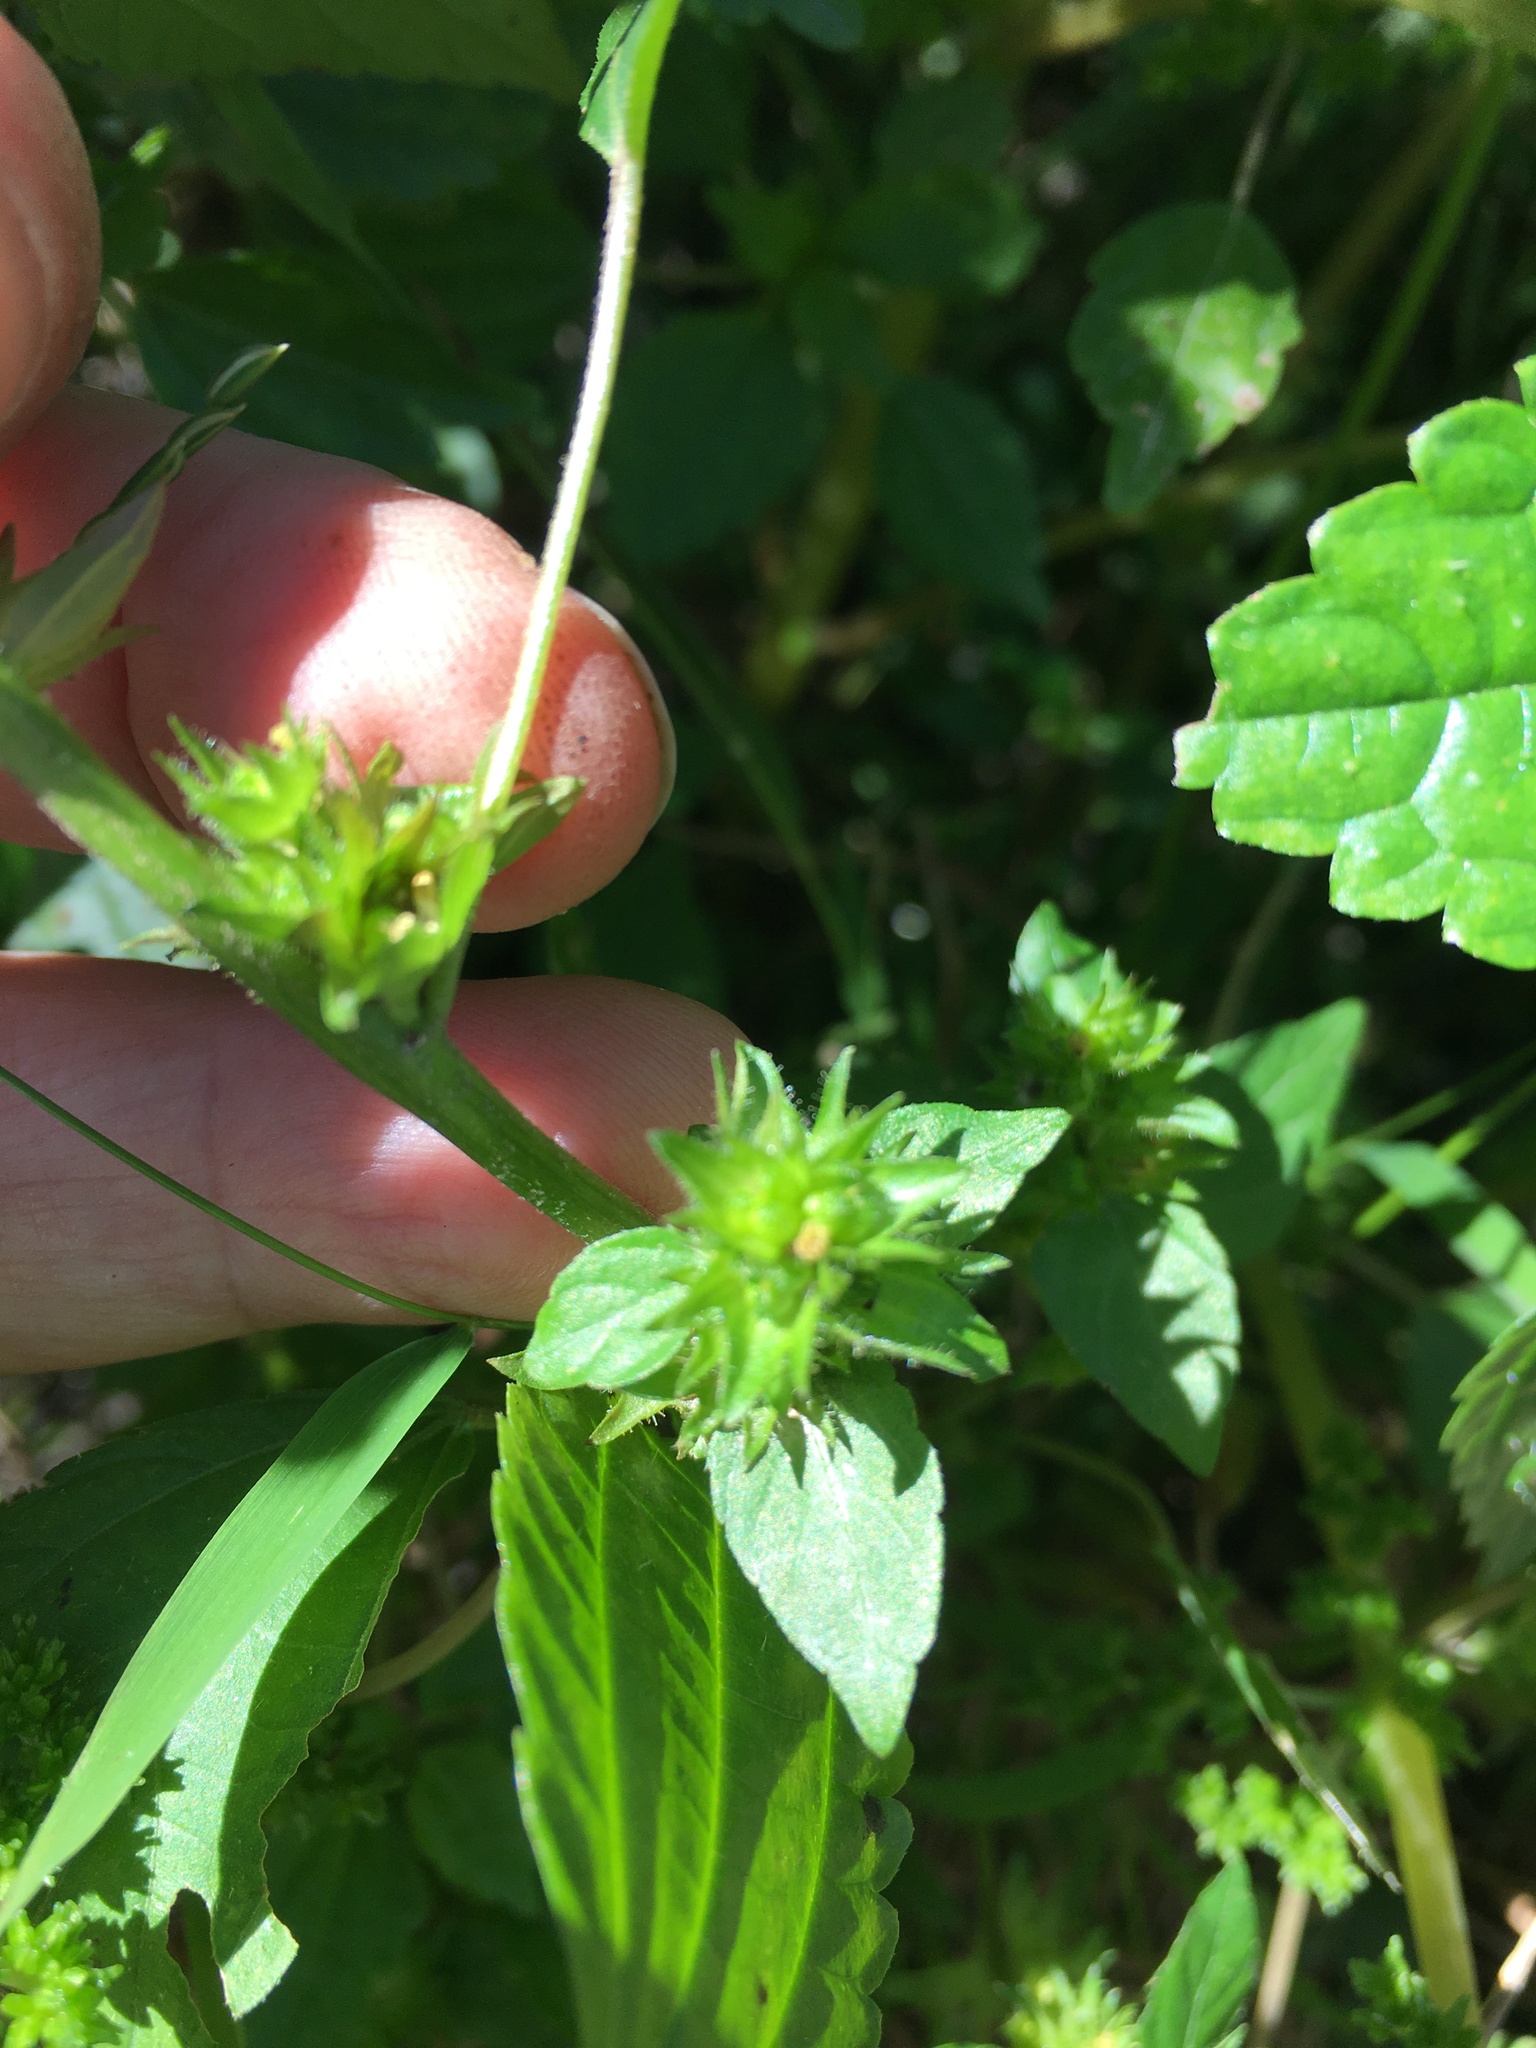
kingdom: Plantae
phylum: Tracheophyta
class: Magnoliopsida
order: Malpighiales
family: Euphorbiaceae
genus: Acalypha
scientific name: Acalypha rhomboidea
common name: Rhombic copperleaf
